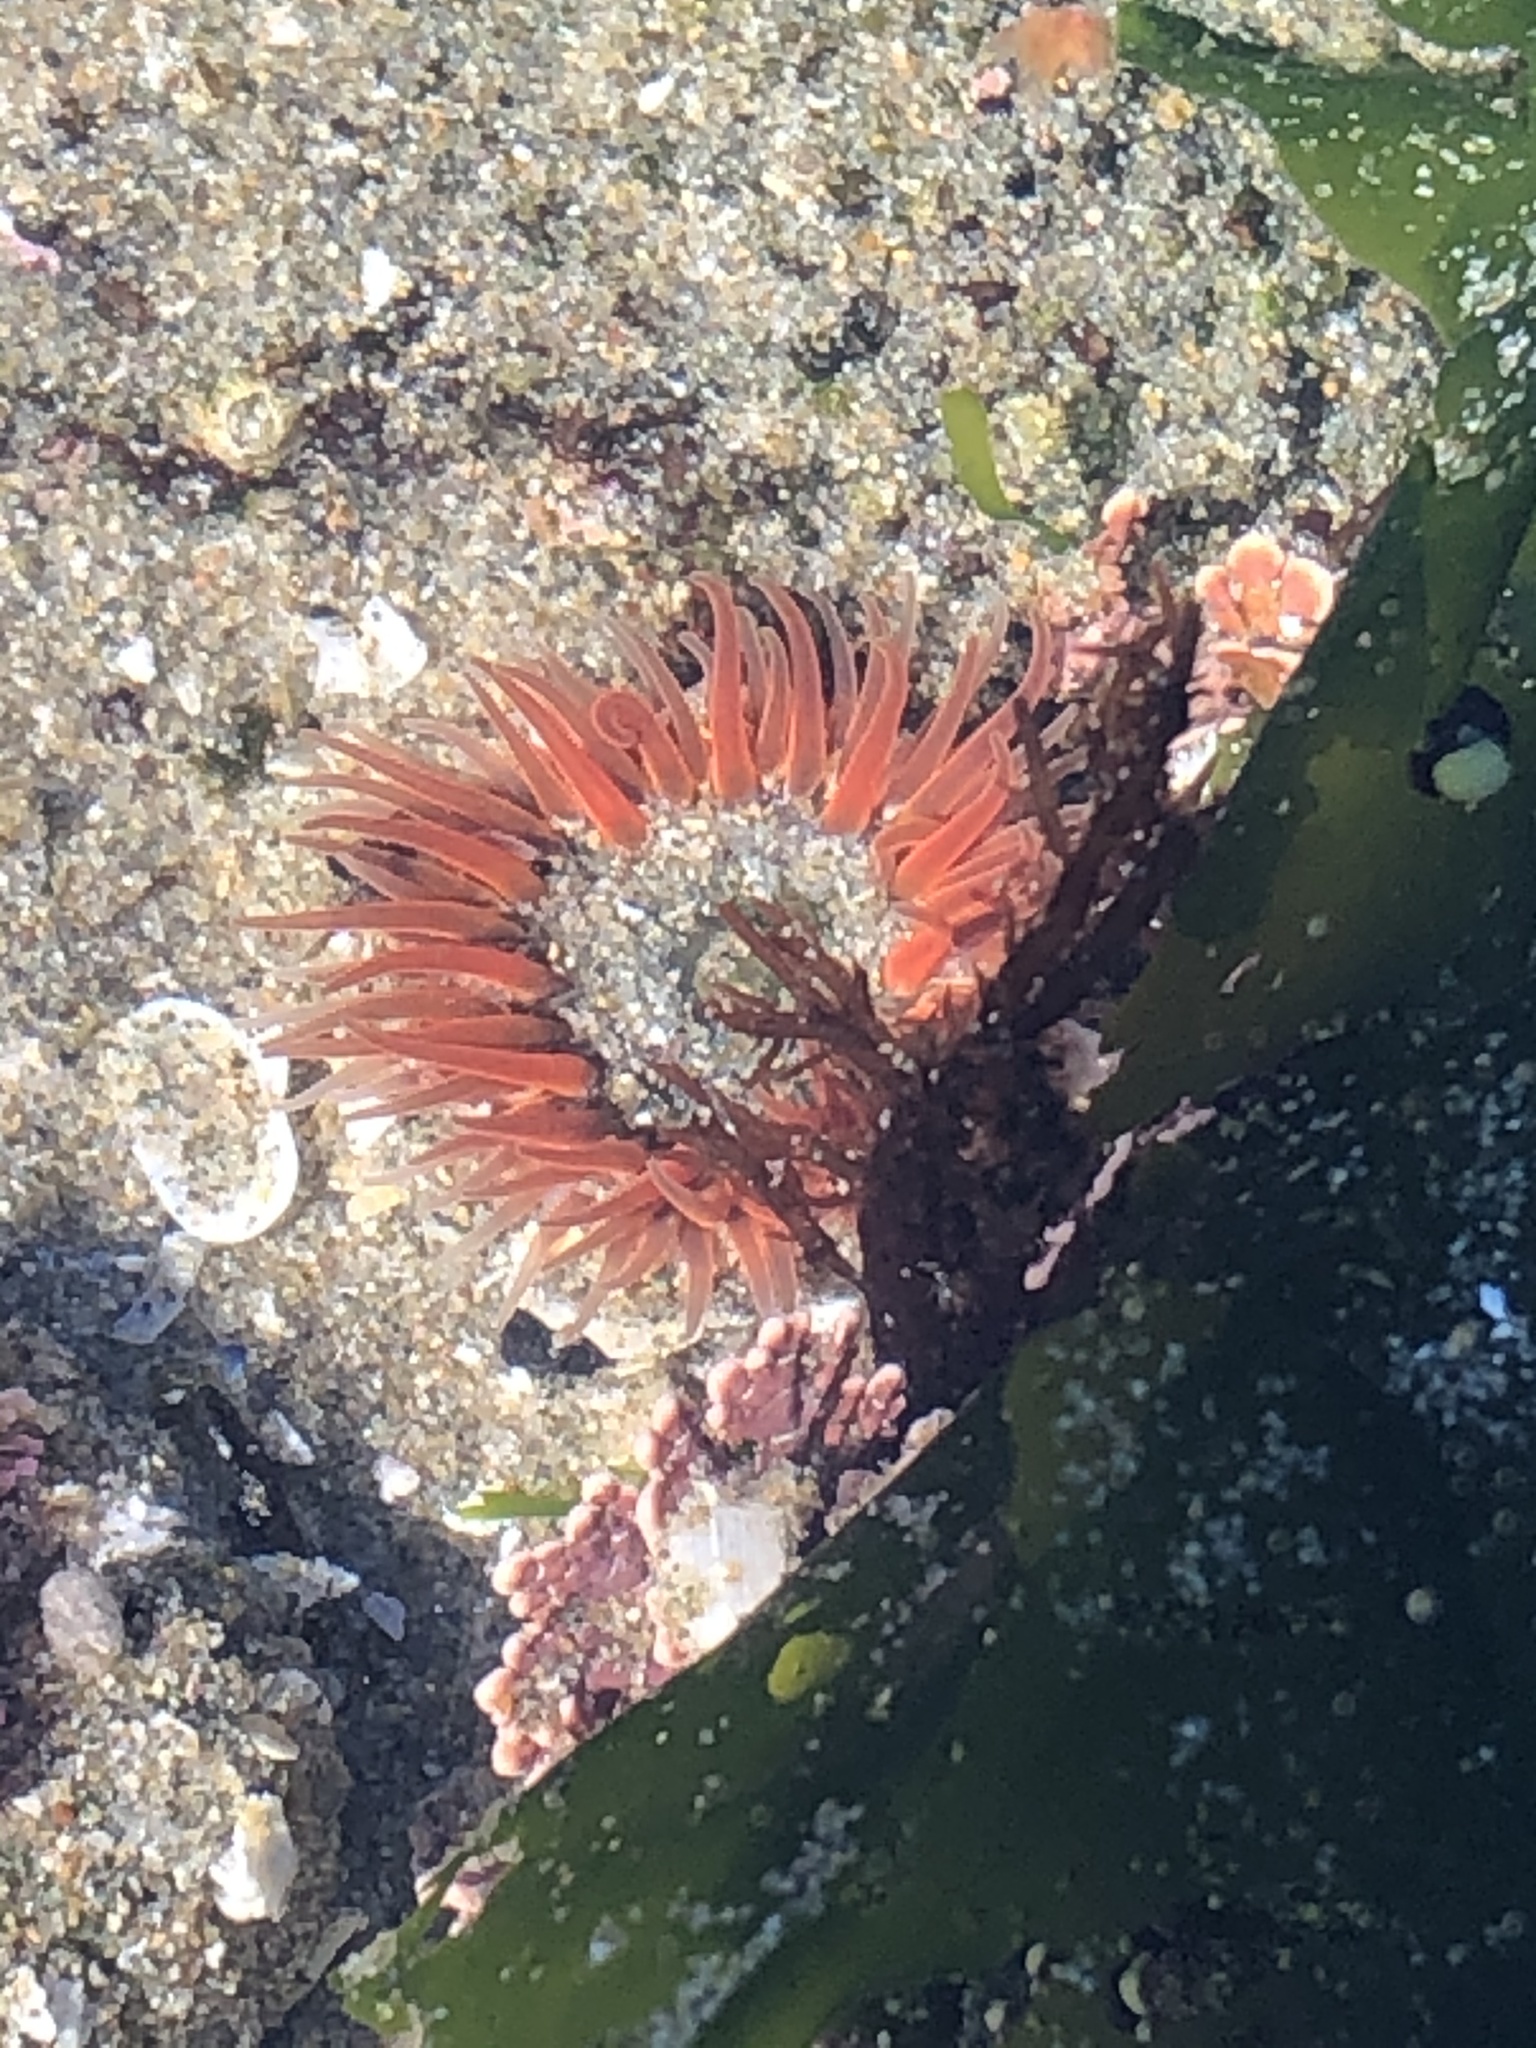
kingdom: Animalia
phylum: Cnidaria
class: Anthozoa
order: Actiniaria
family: Actiniidae
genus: Anthopleura
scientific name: Anthopleura artemisia
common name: Buried sea anemone
